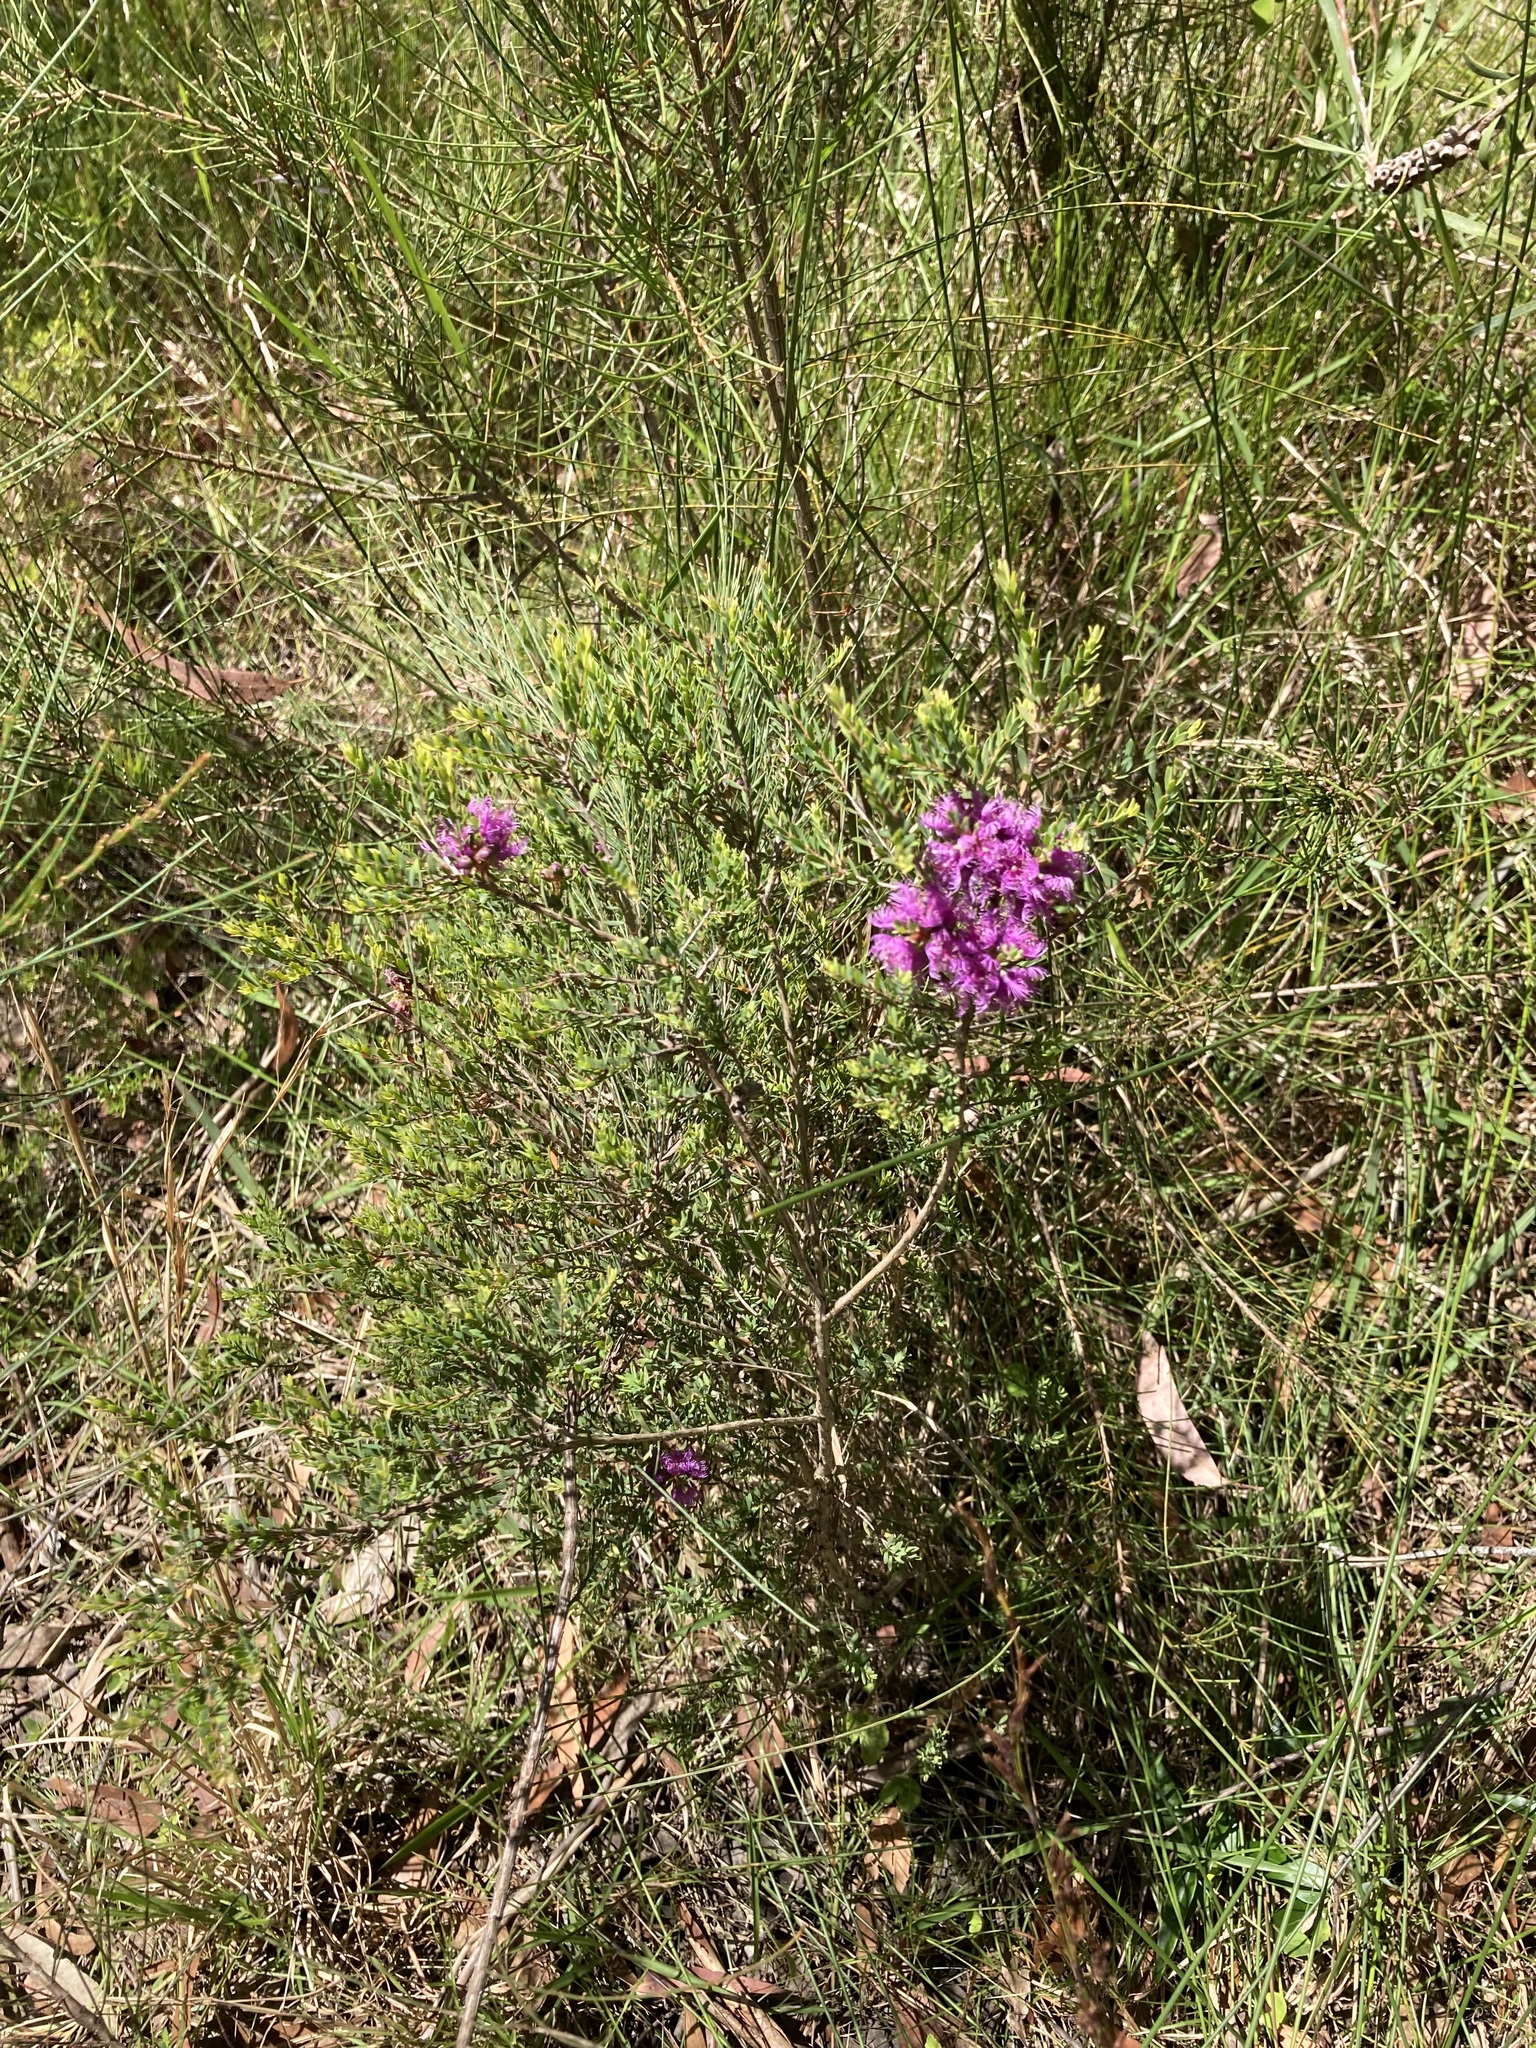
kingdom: Plantae
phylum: Tracheophyta
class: Magnoliopsida
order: Myrtales
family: Myrtaceae
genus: Melaleuca
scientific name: Melaleuca thymifolia
